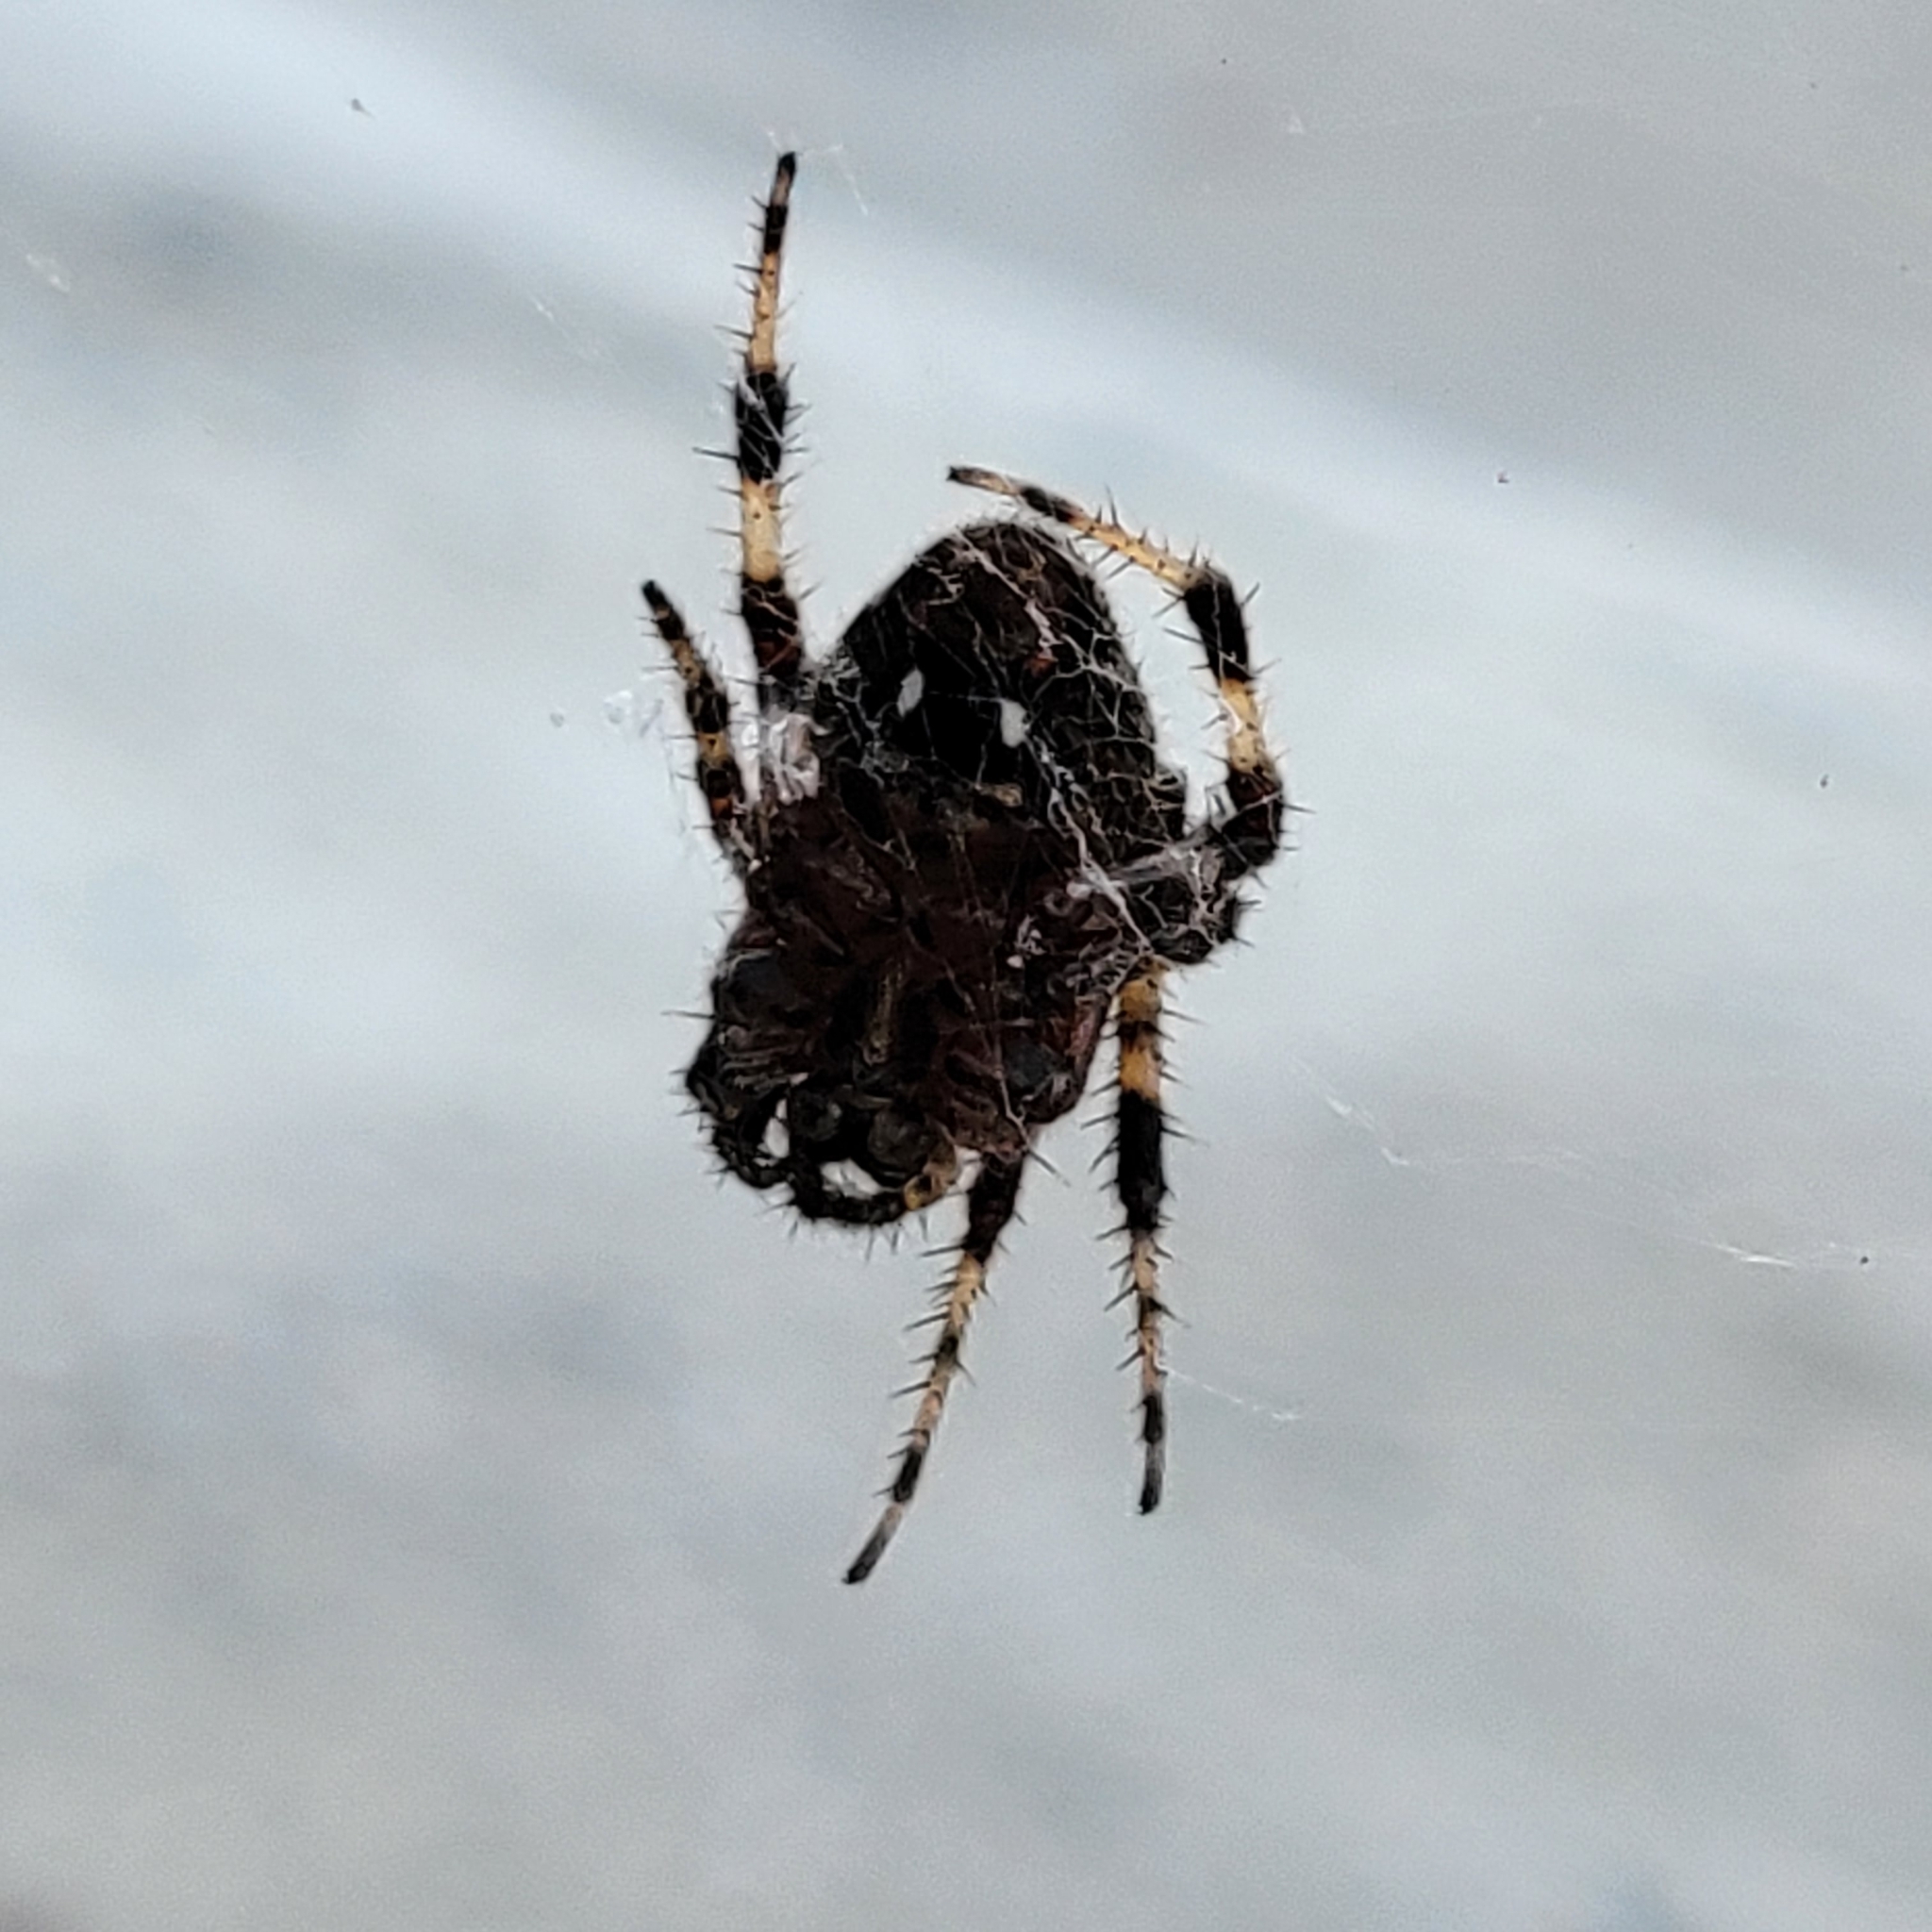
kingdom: Animalia
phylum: Arthropoda
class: Arachnida
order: Araneae
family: Araneidae
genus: Neoscona
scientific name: Neoscona crucifera
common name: Spotted orbweaver
